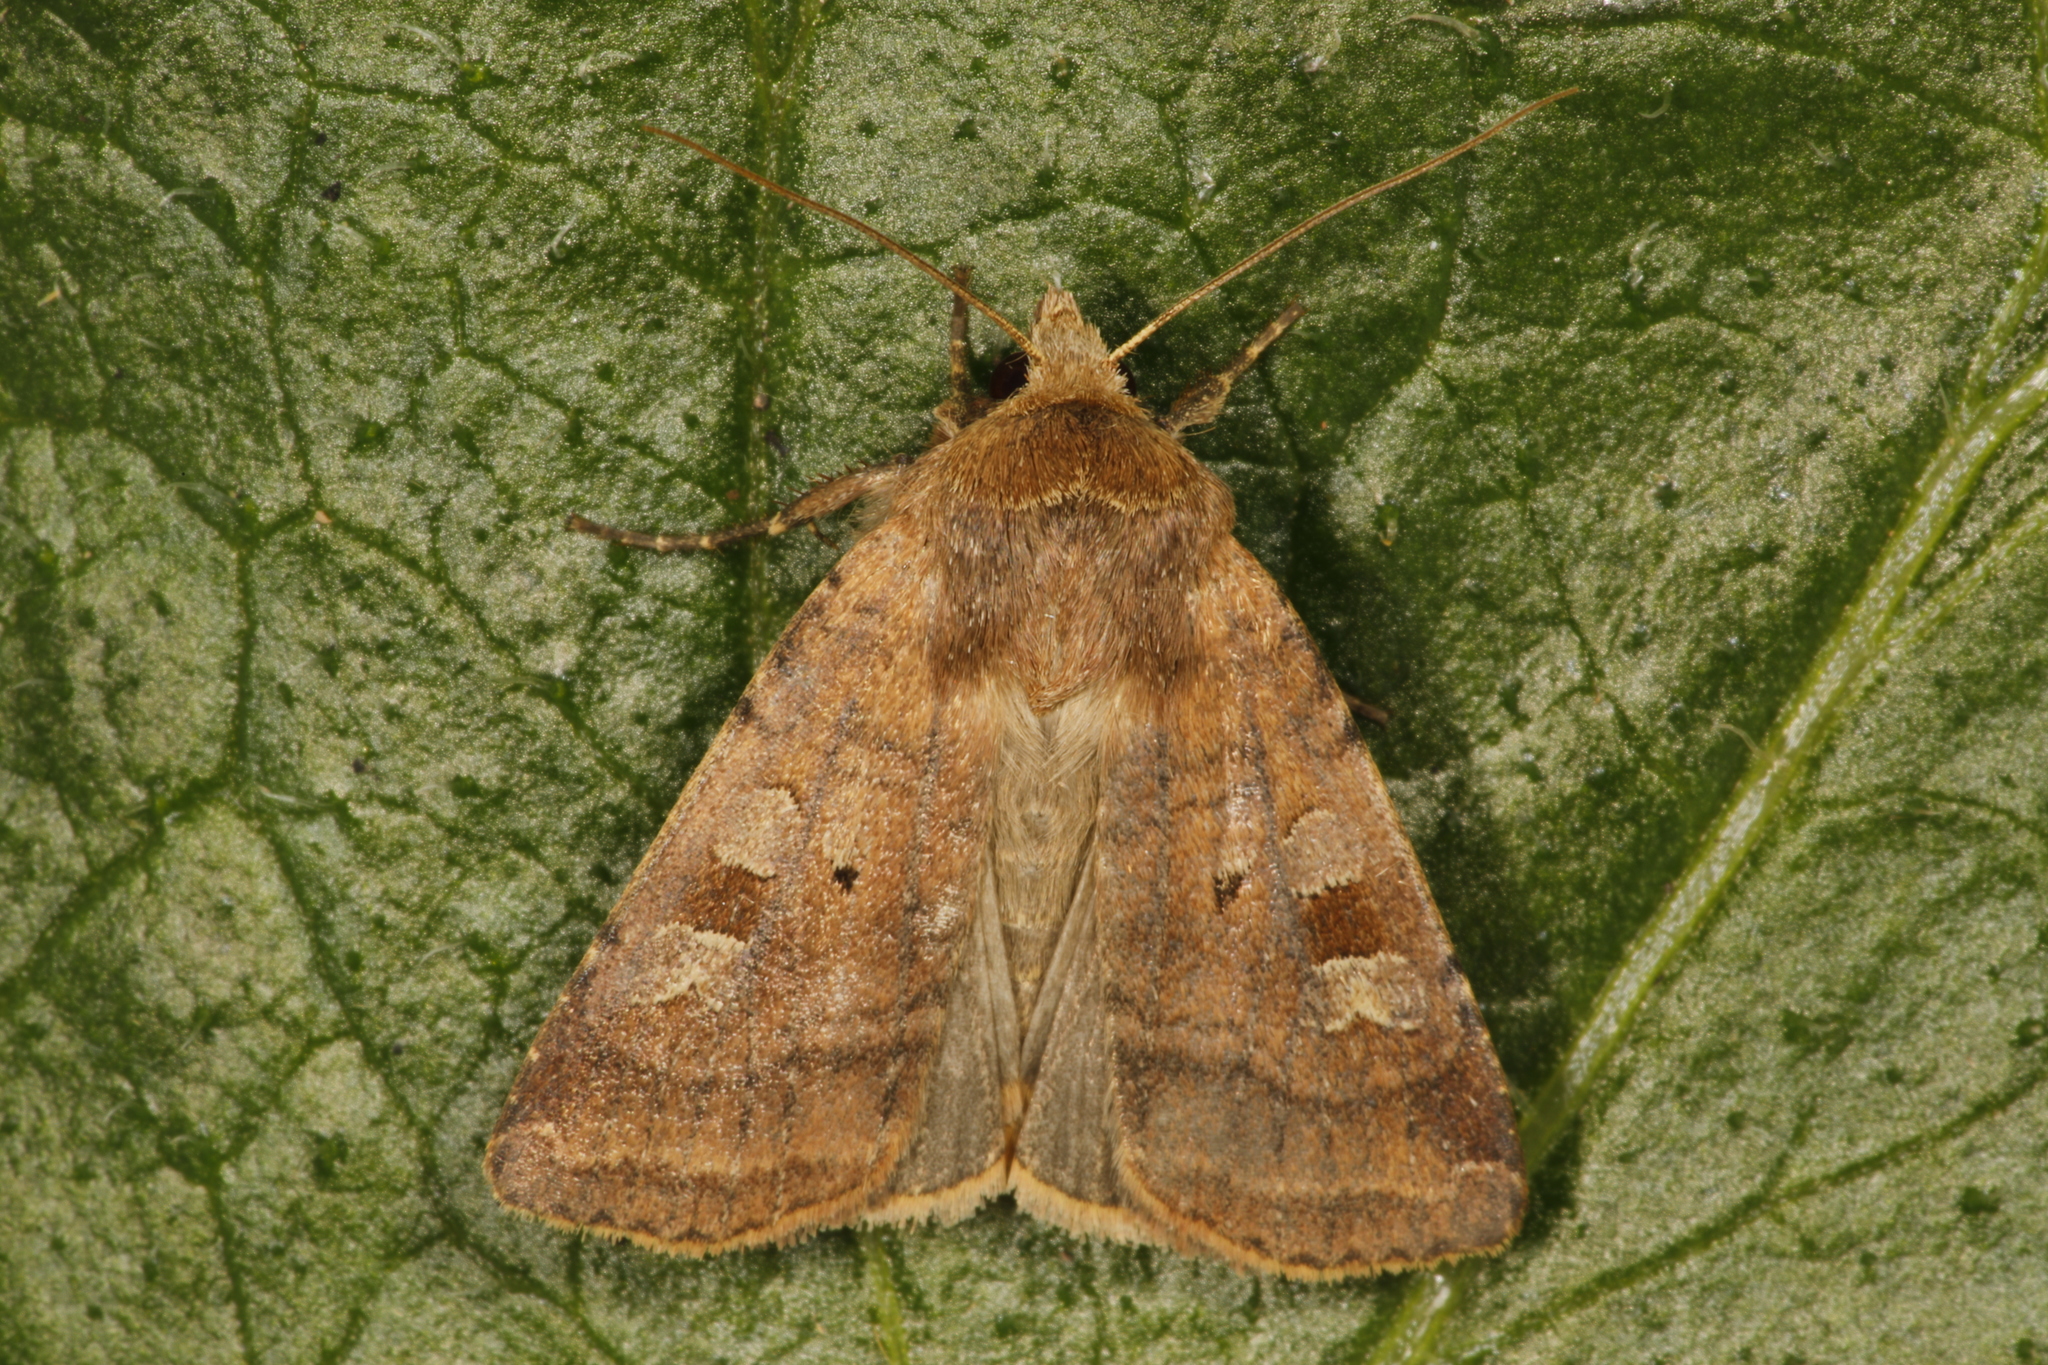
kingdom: Animalia
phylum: Arthropoda
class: Insecta
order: Lepidoptera
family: Noctuidae
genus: Diarsia
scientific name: Diarsia mendica
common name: Ingrailed clay
